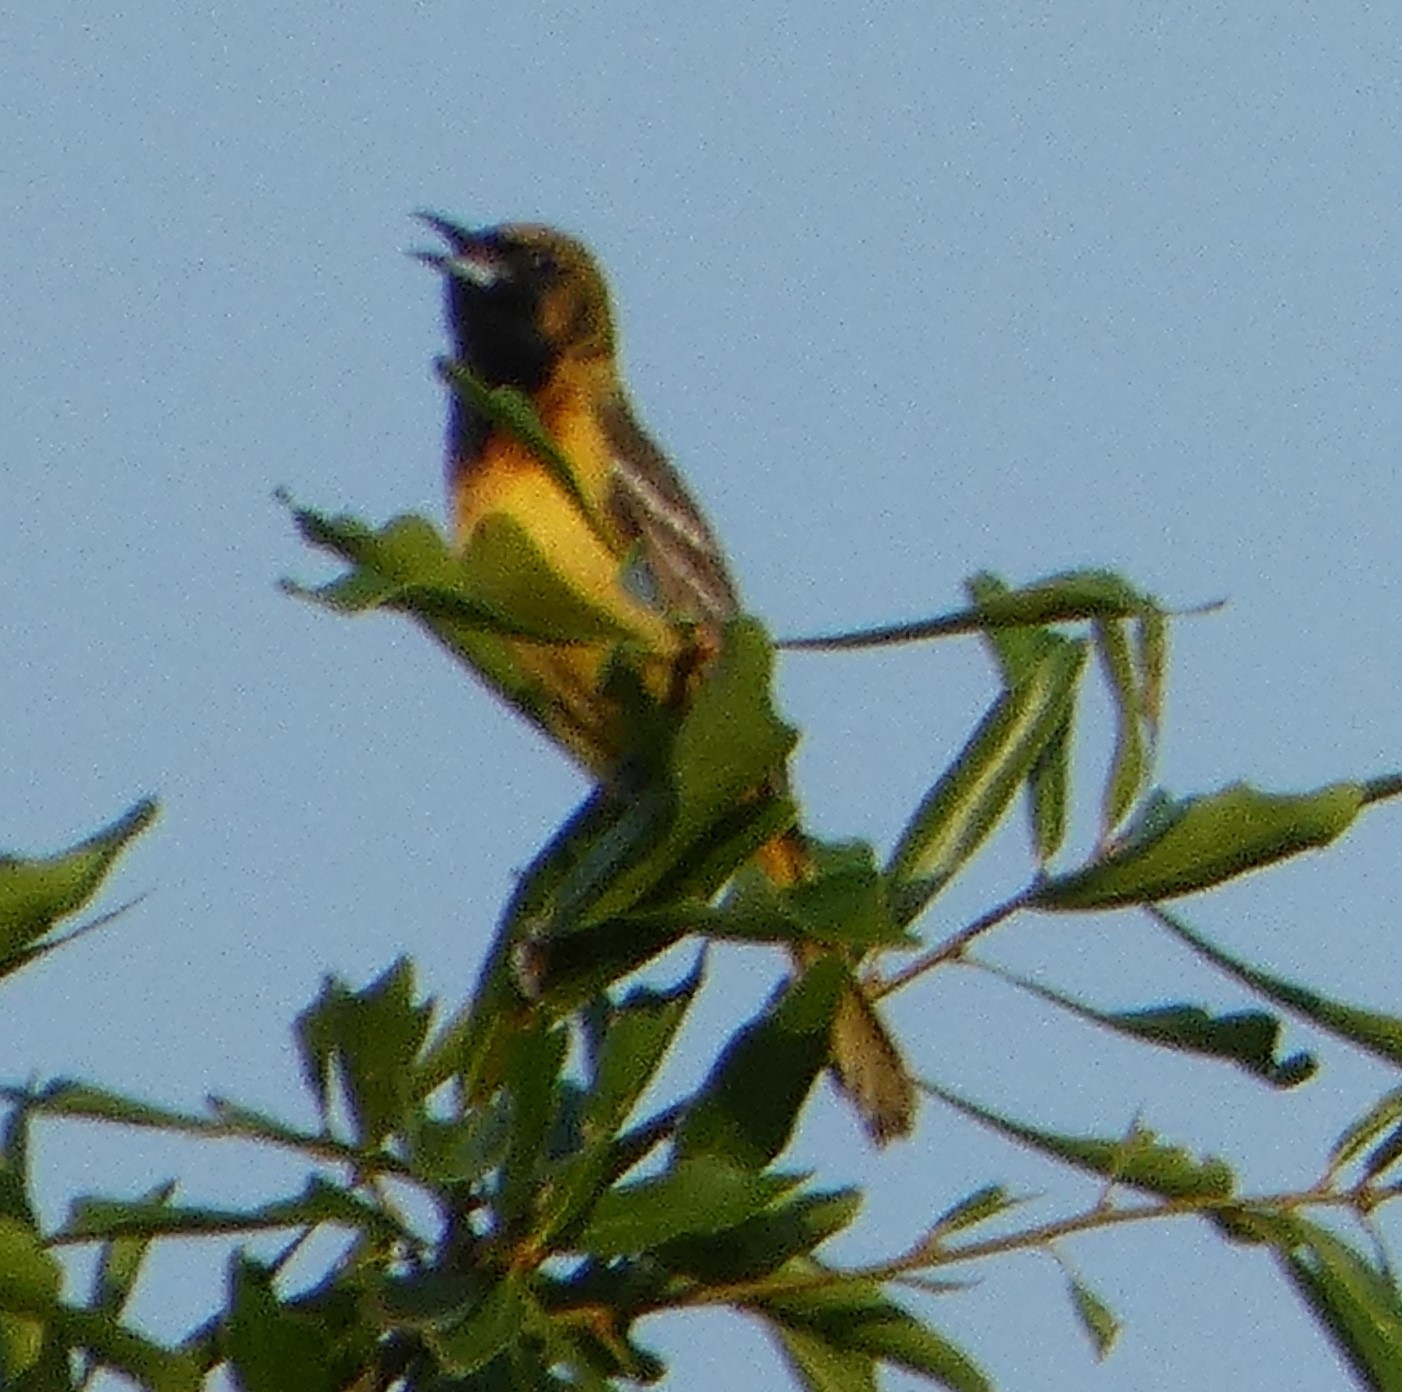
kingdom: Animalia
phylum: Chordata
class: Aves
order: Passeriformes
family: Icteridae
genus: Icterus
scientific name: Icterus spurius
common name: Orchard oriole
